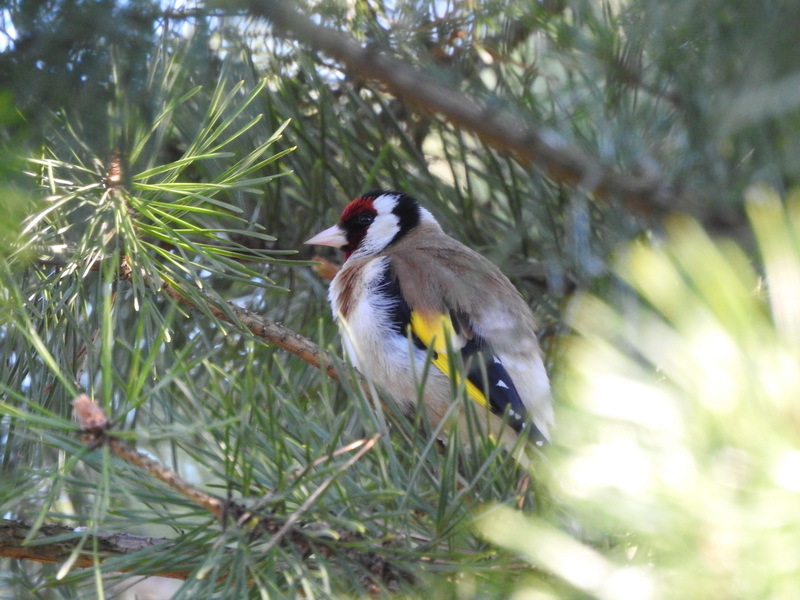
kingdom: Animalia
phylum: Chordata
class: Aves
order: Passeriformes
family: Fringillidae
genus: Carduelis
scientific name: Carduelis carduelis
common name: European goldfinch
